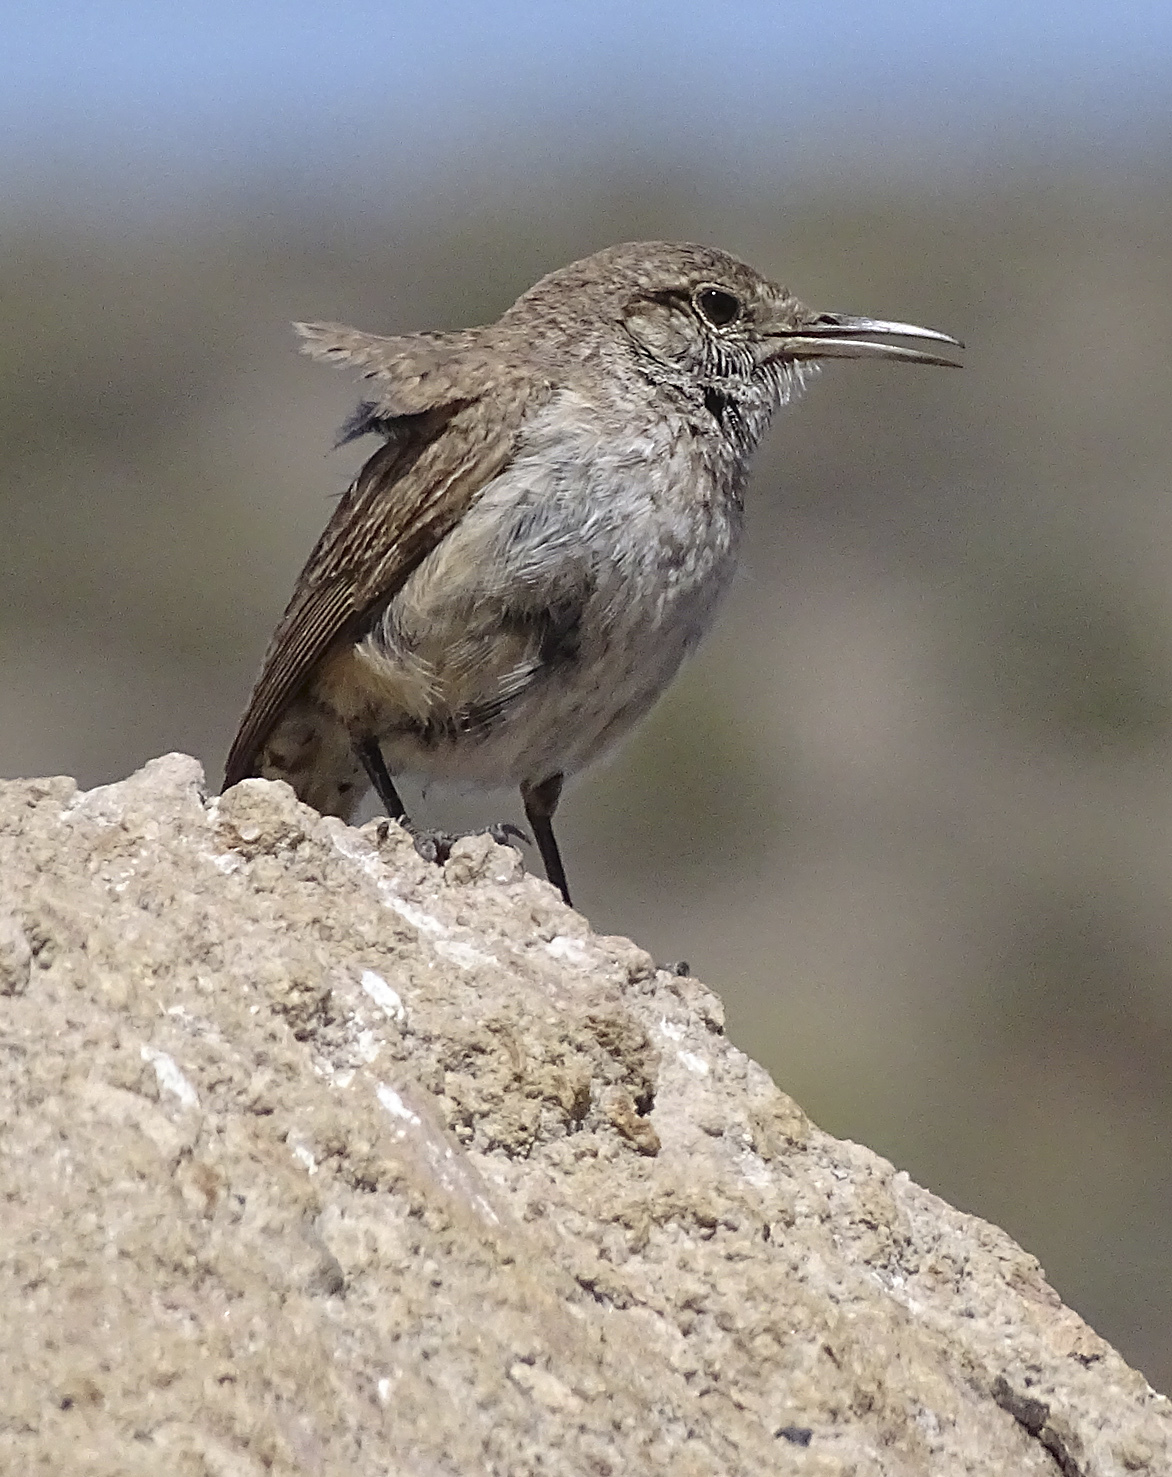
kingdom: Animalia
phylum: Chordata
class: Aves
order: Passeriformes
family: Troglodytidae
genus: Salpinctes
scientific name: Salpinctes obsoletus
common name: Rock wren
